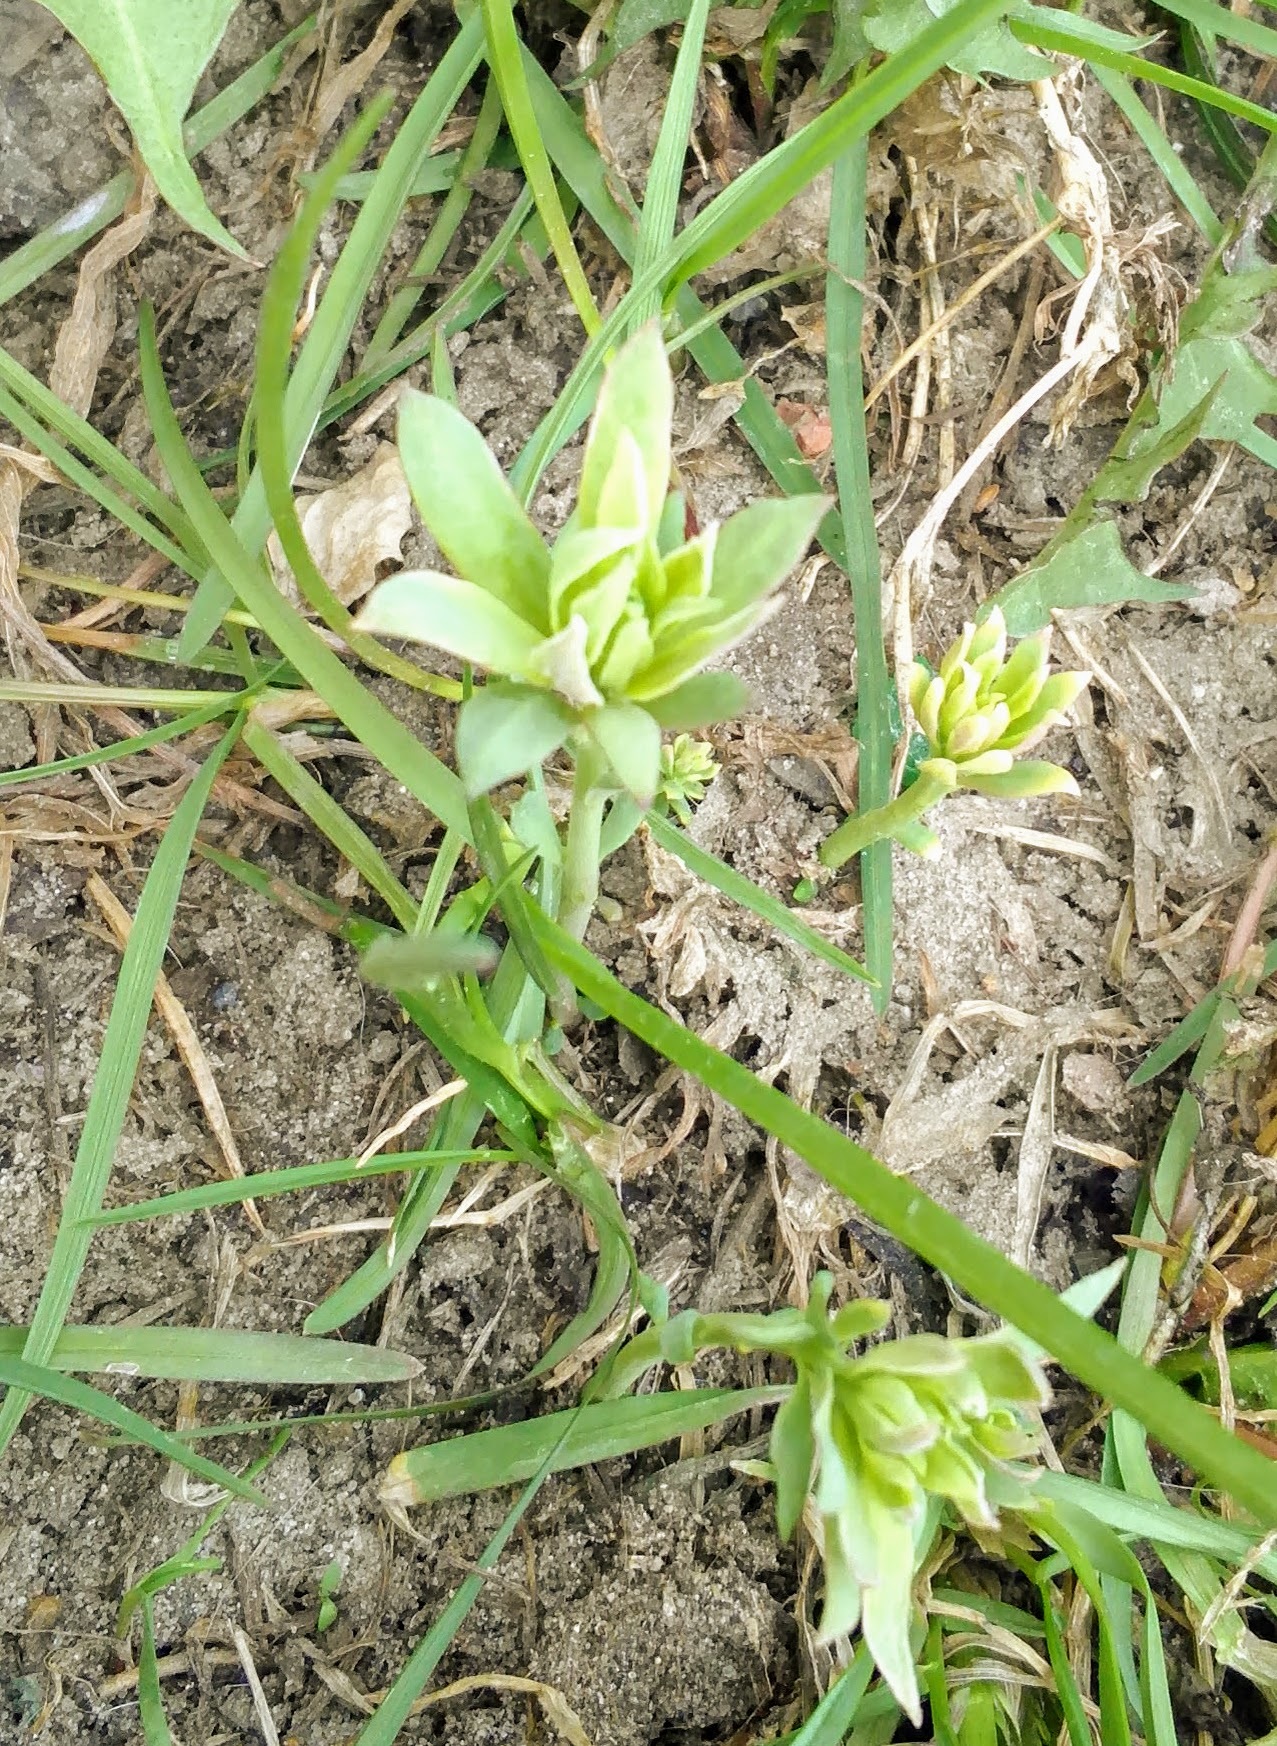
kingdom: Plantae
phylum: Tracheophyta
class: Magnoliopsida
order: Saxifragales
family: Crassulaceae
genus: Hylotelephium
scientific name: Hylotelephium telephium
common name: Live-forever
